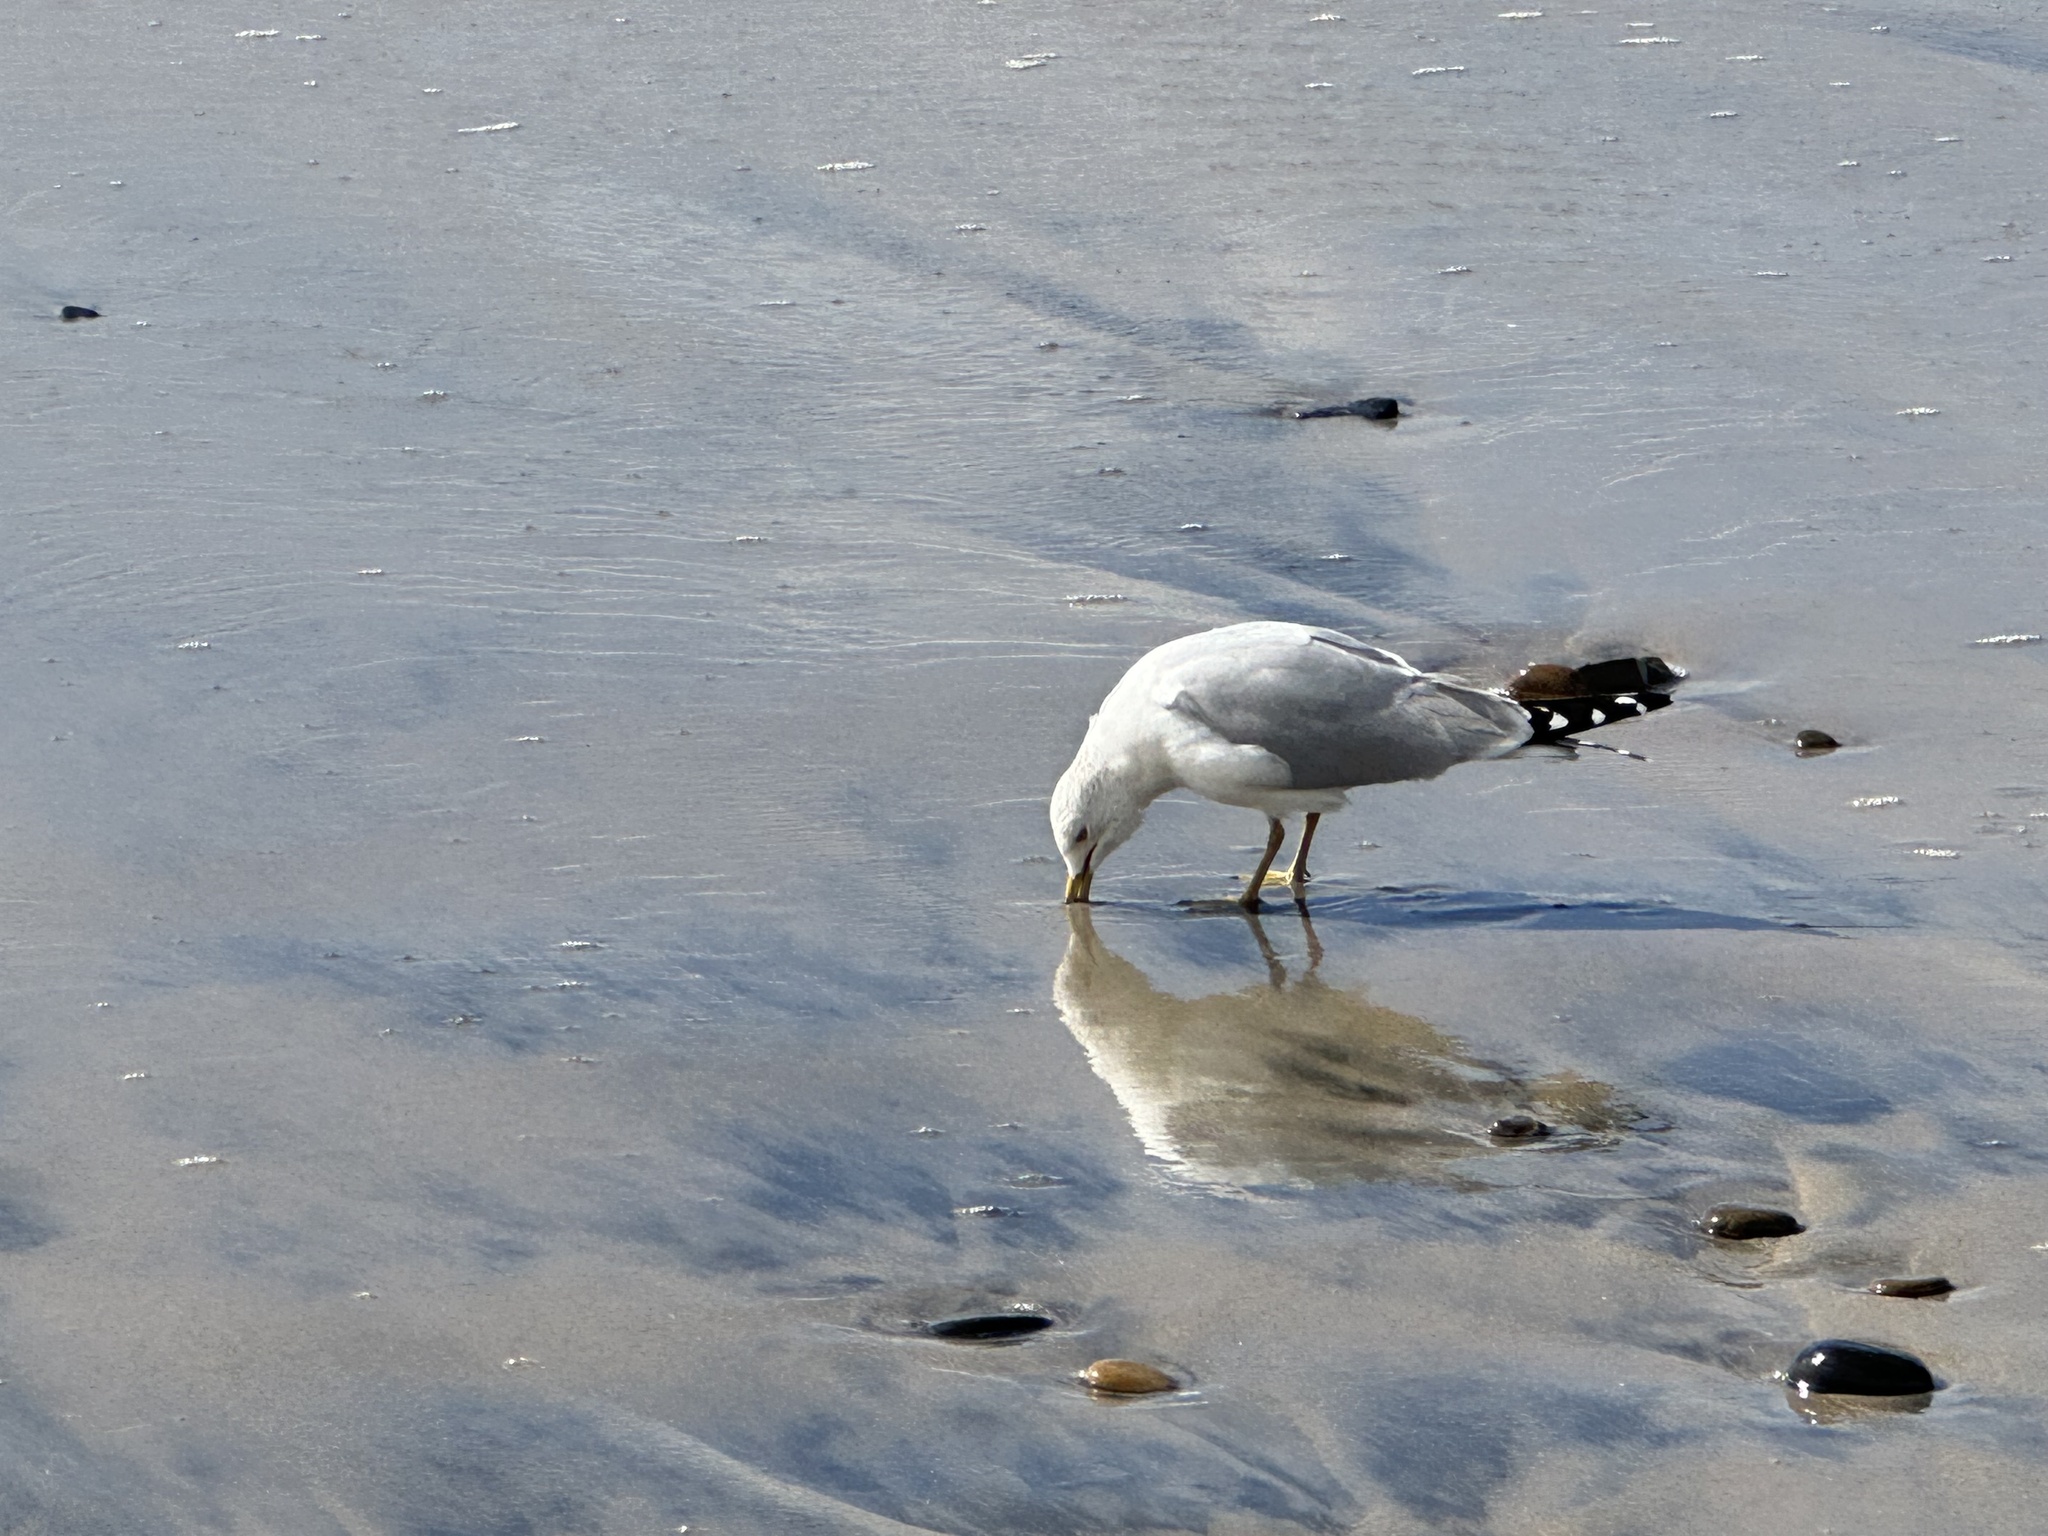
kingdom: Animalia
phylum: Chordata
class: Aves
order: Charadriiformes
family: Laridae
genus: Larus
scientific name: Larus delawarensis
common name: Ring-billed gull
